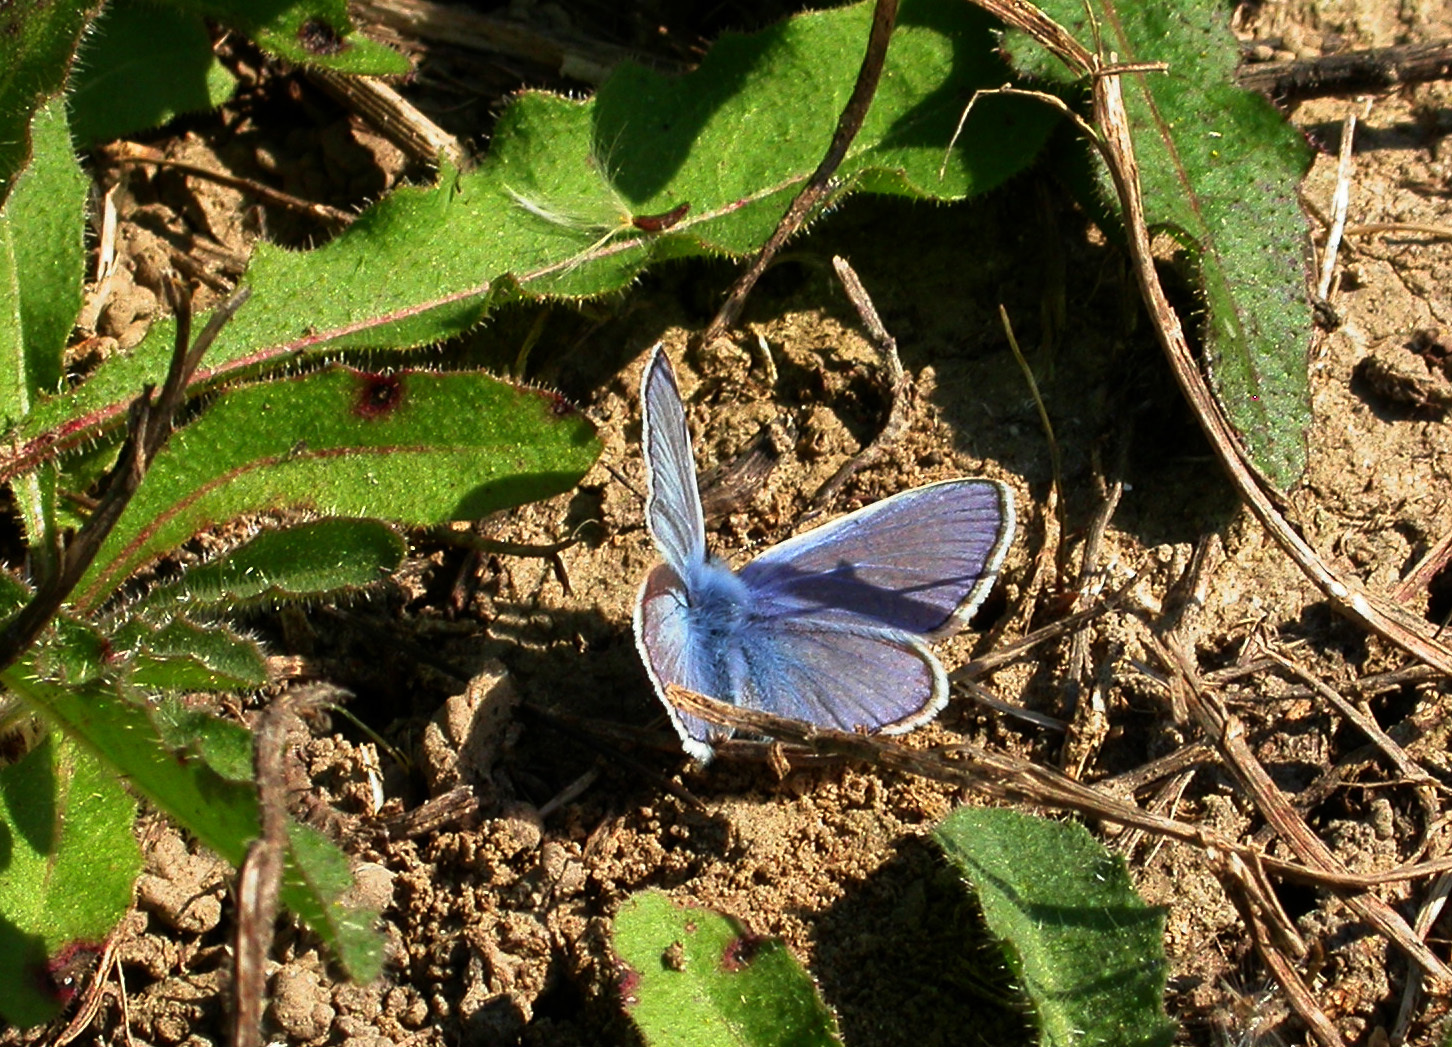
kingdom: Animalia
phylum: Arthropoda
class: Insecta
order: Lepidoptera
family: Lycaenidae
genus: Polyommatus
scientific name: Polyommatus icarus
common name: Common blue
